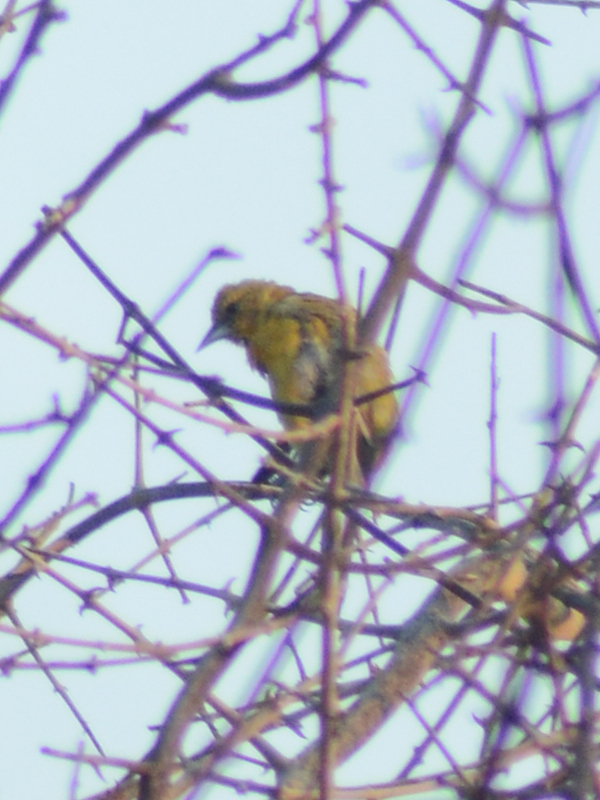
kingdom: Animalia
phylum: Chordata
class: Aves
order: Passeriformes
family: Icteridae
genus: Icterus
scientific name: Icterus spurius
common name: Orchard oriole
